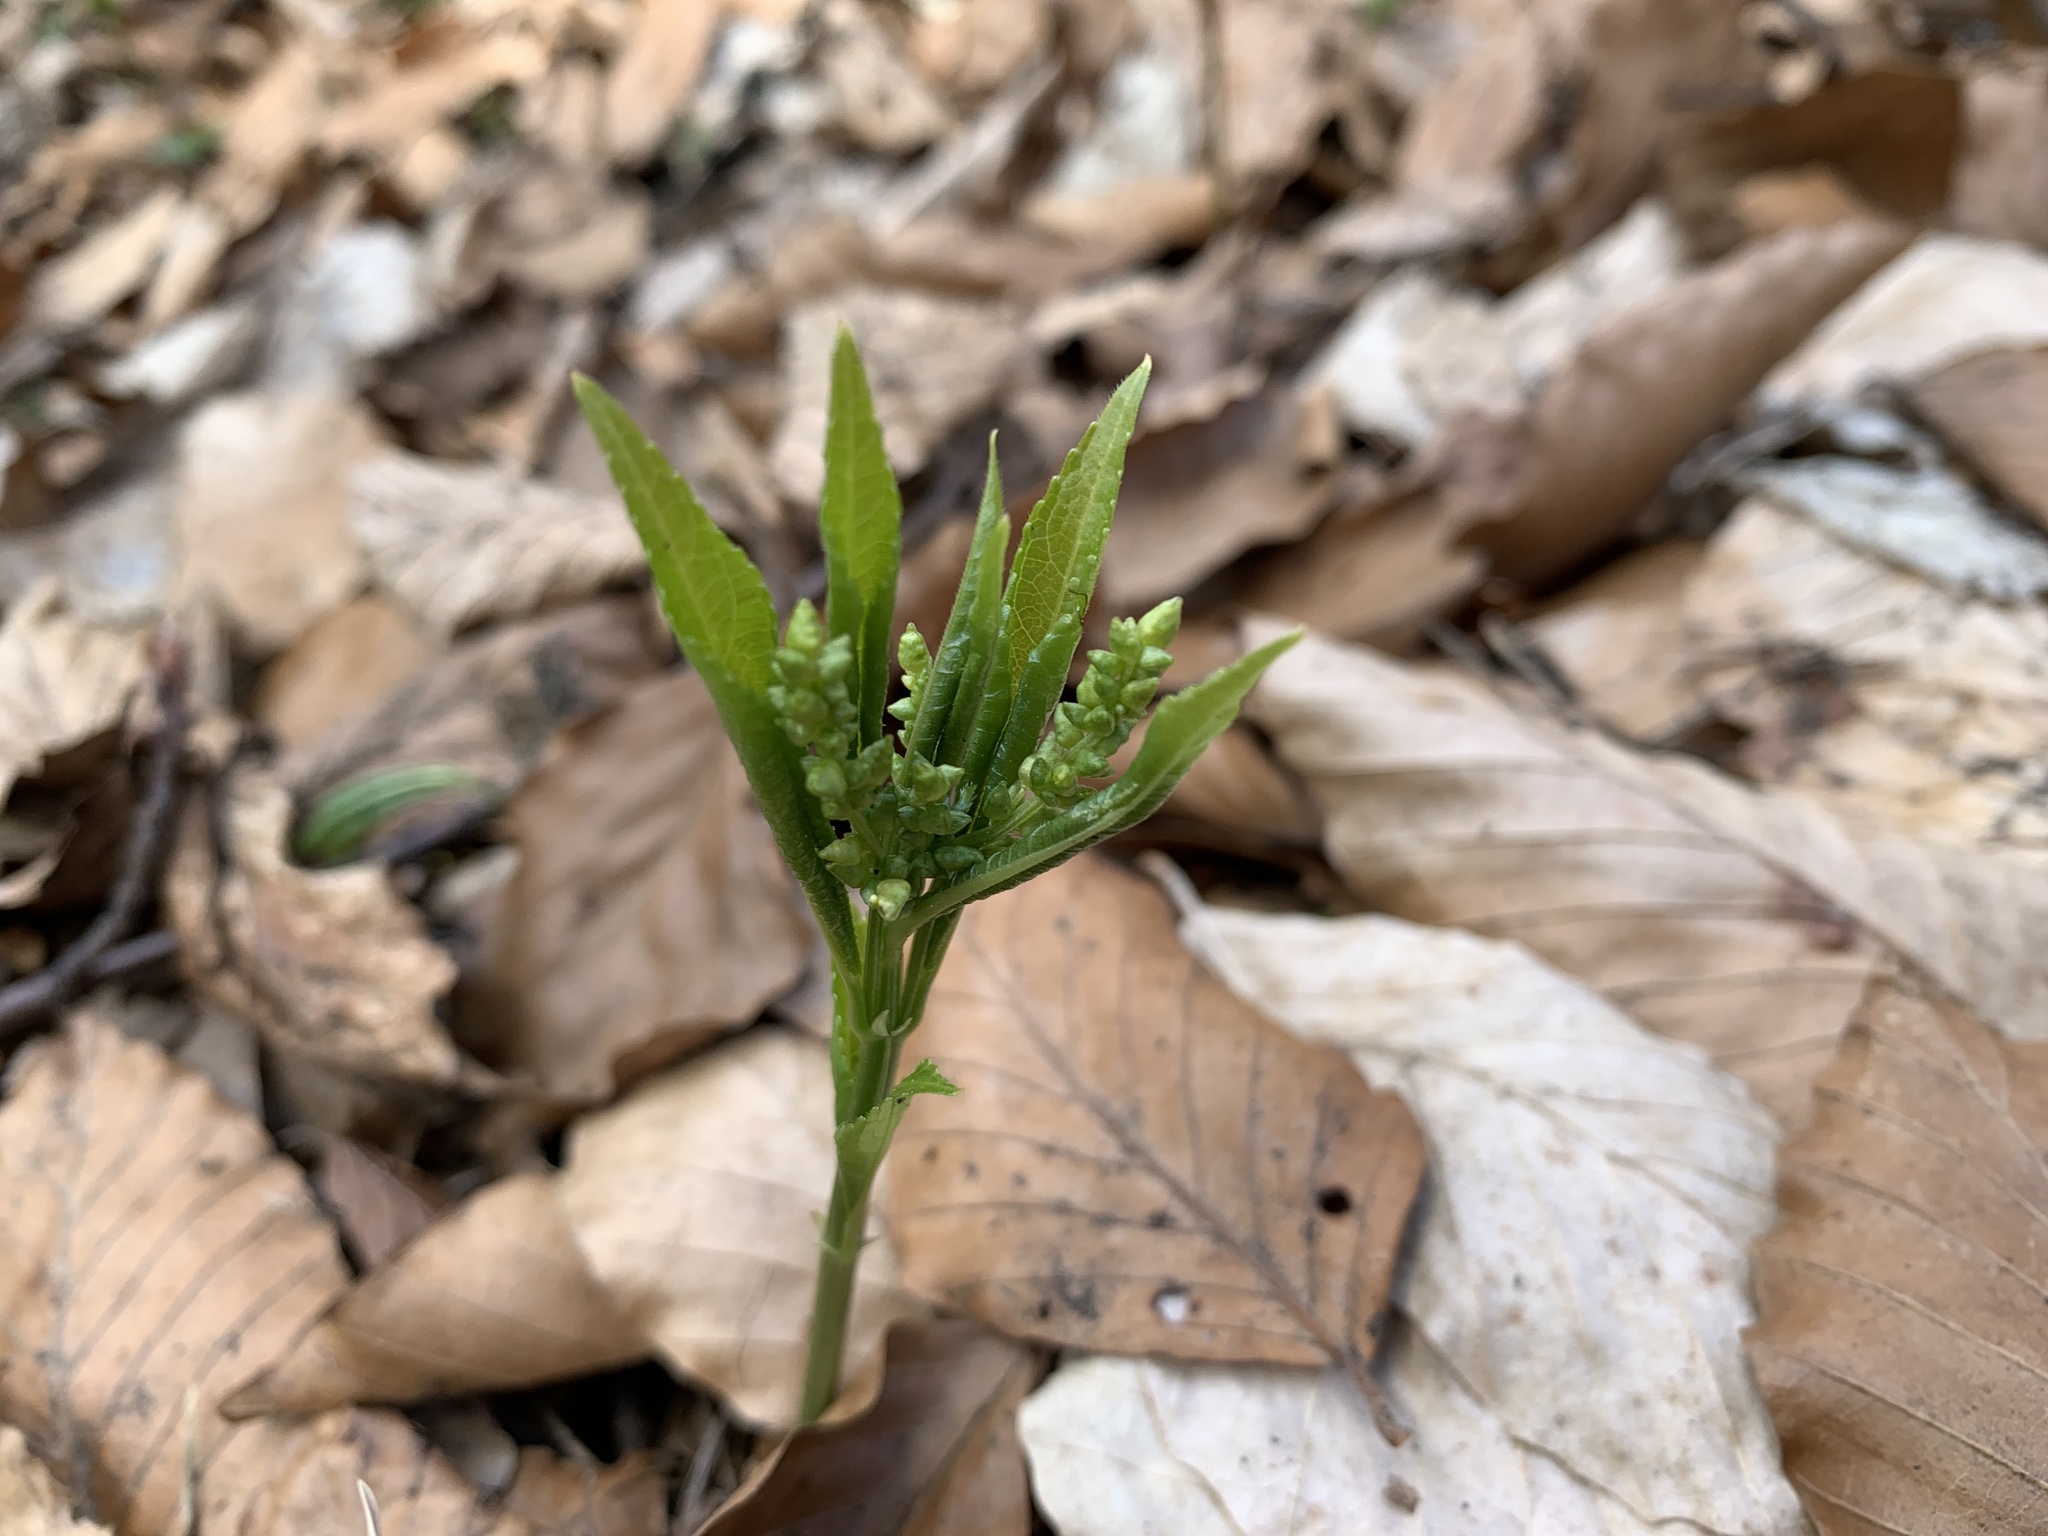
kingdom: Plantae
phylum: Tracheophyta
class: Magnoliopsida
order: Malpighiales
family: Euphorbiaceae
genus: Mercurialis
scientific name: Mercurialis perennis
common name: Dog mercury
